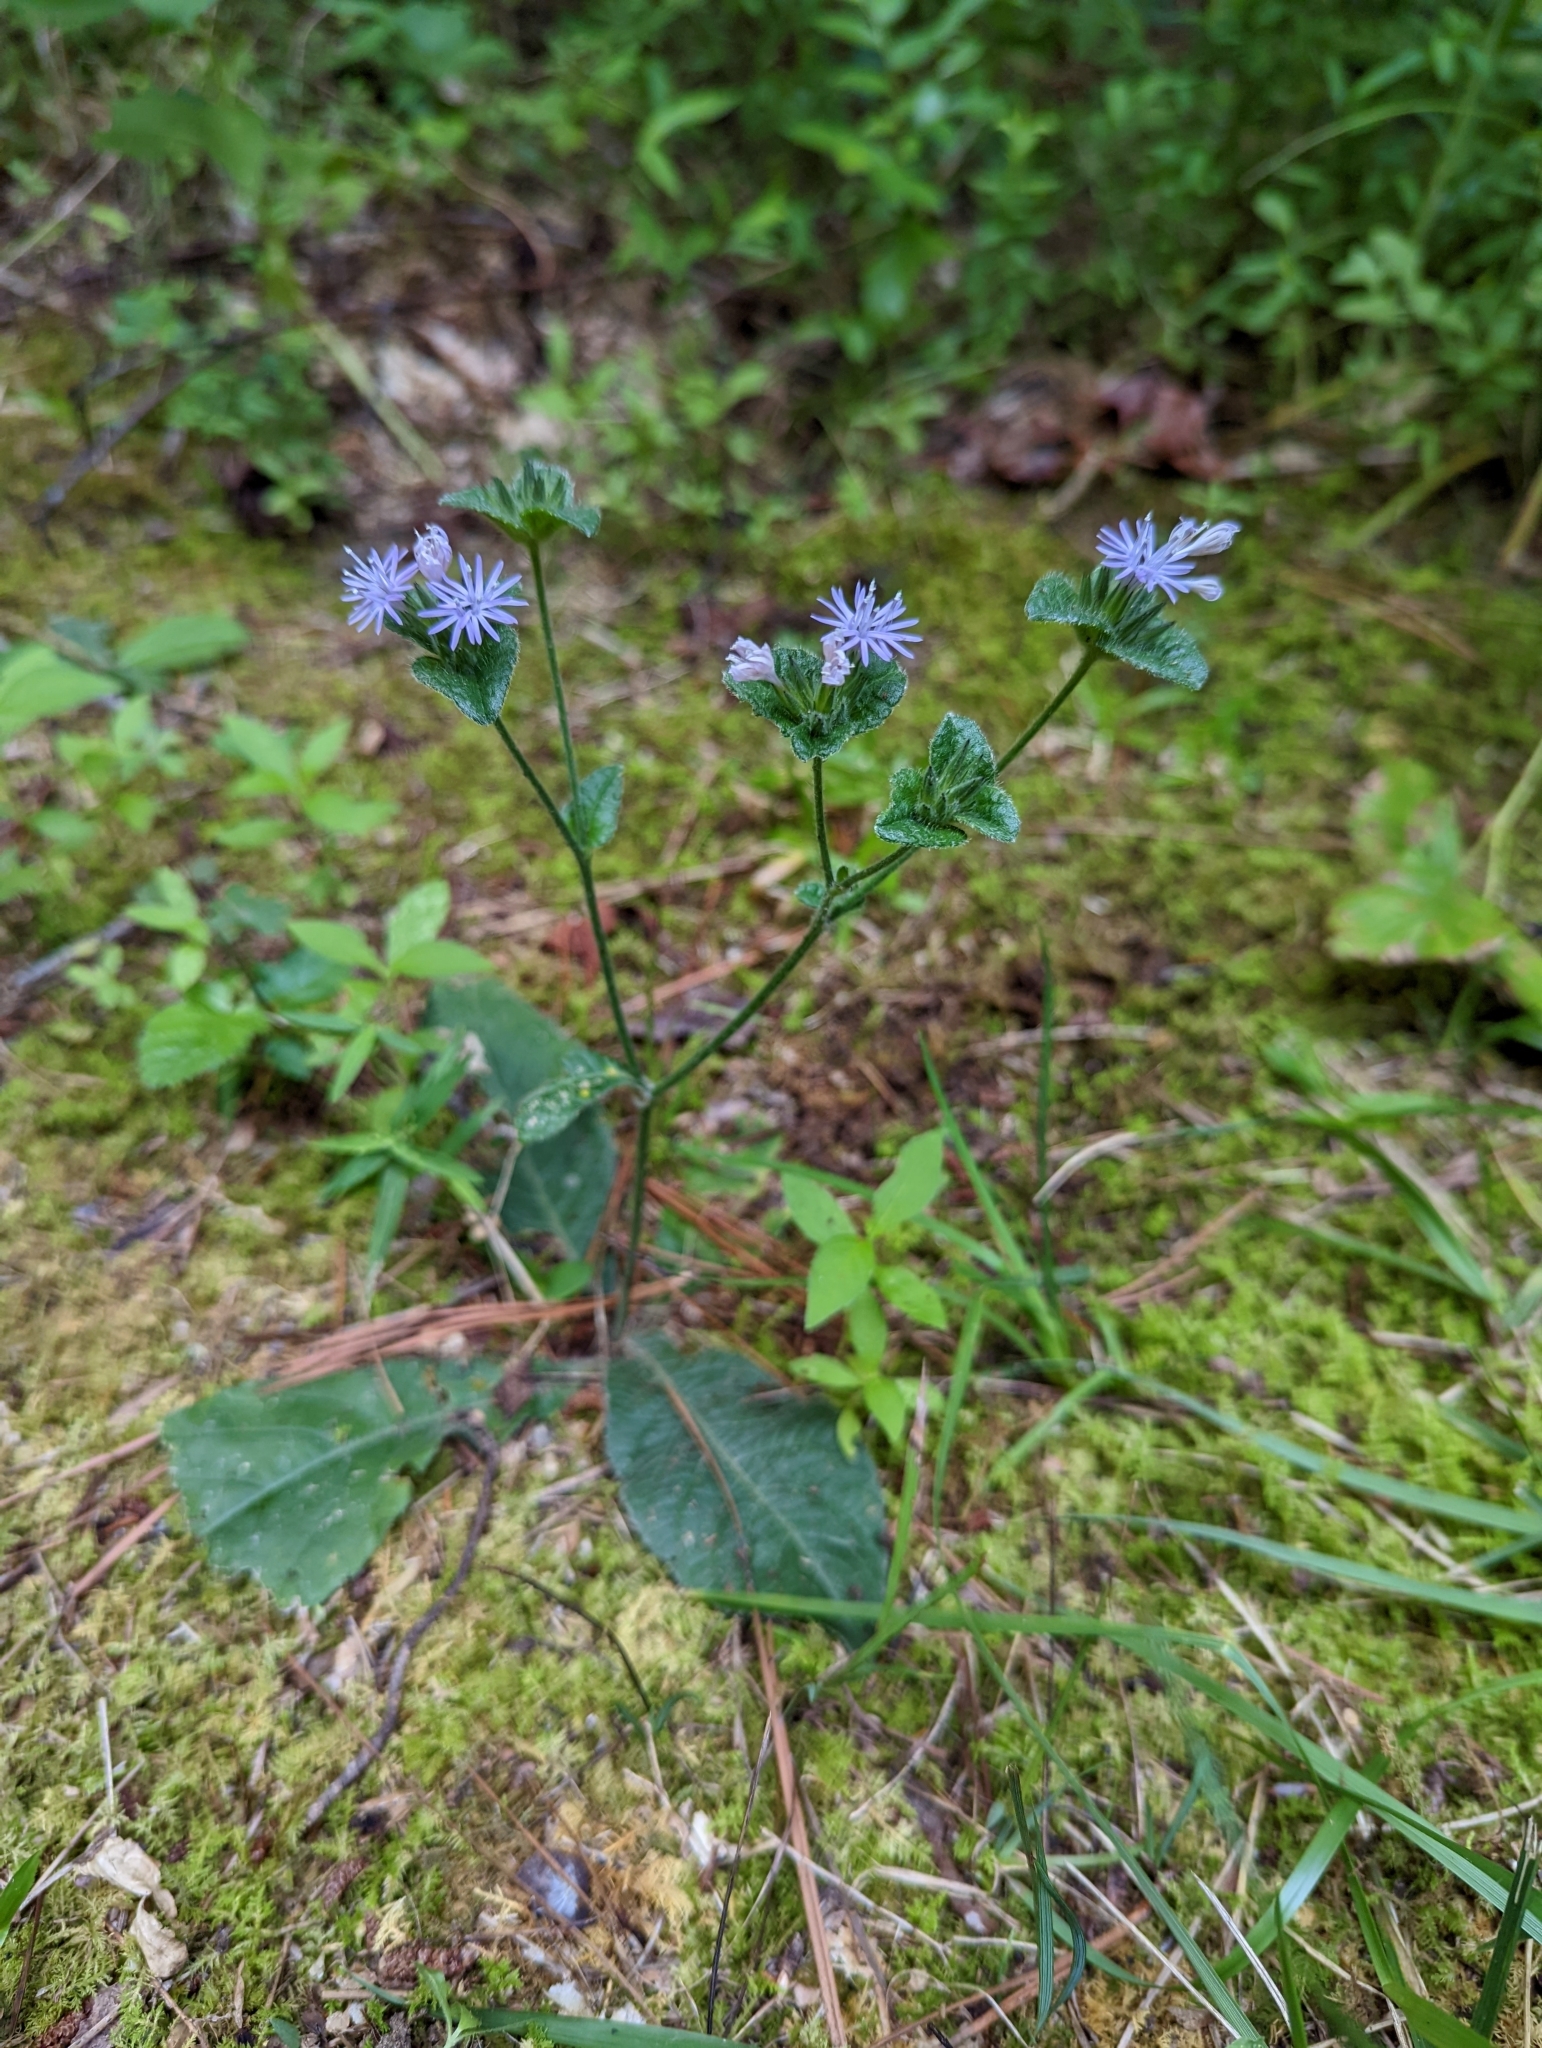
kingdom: Plantae
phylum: Tracheophyta
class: Magnoliopsida
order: Asterales
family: Asteraceae
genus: Elephantopus
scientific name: Elephantopus tomentosus
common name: Tobacco-weed
